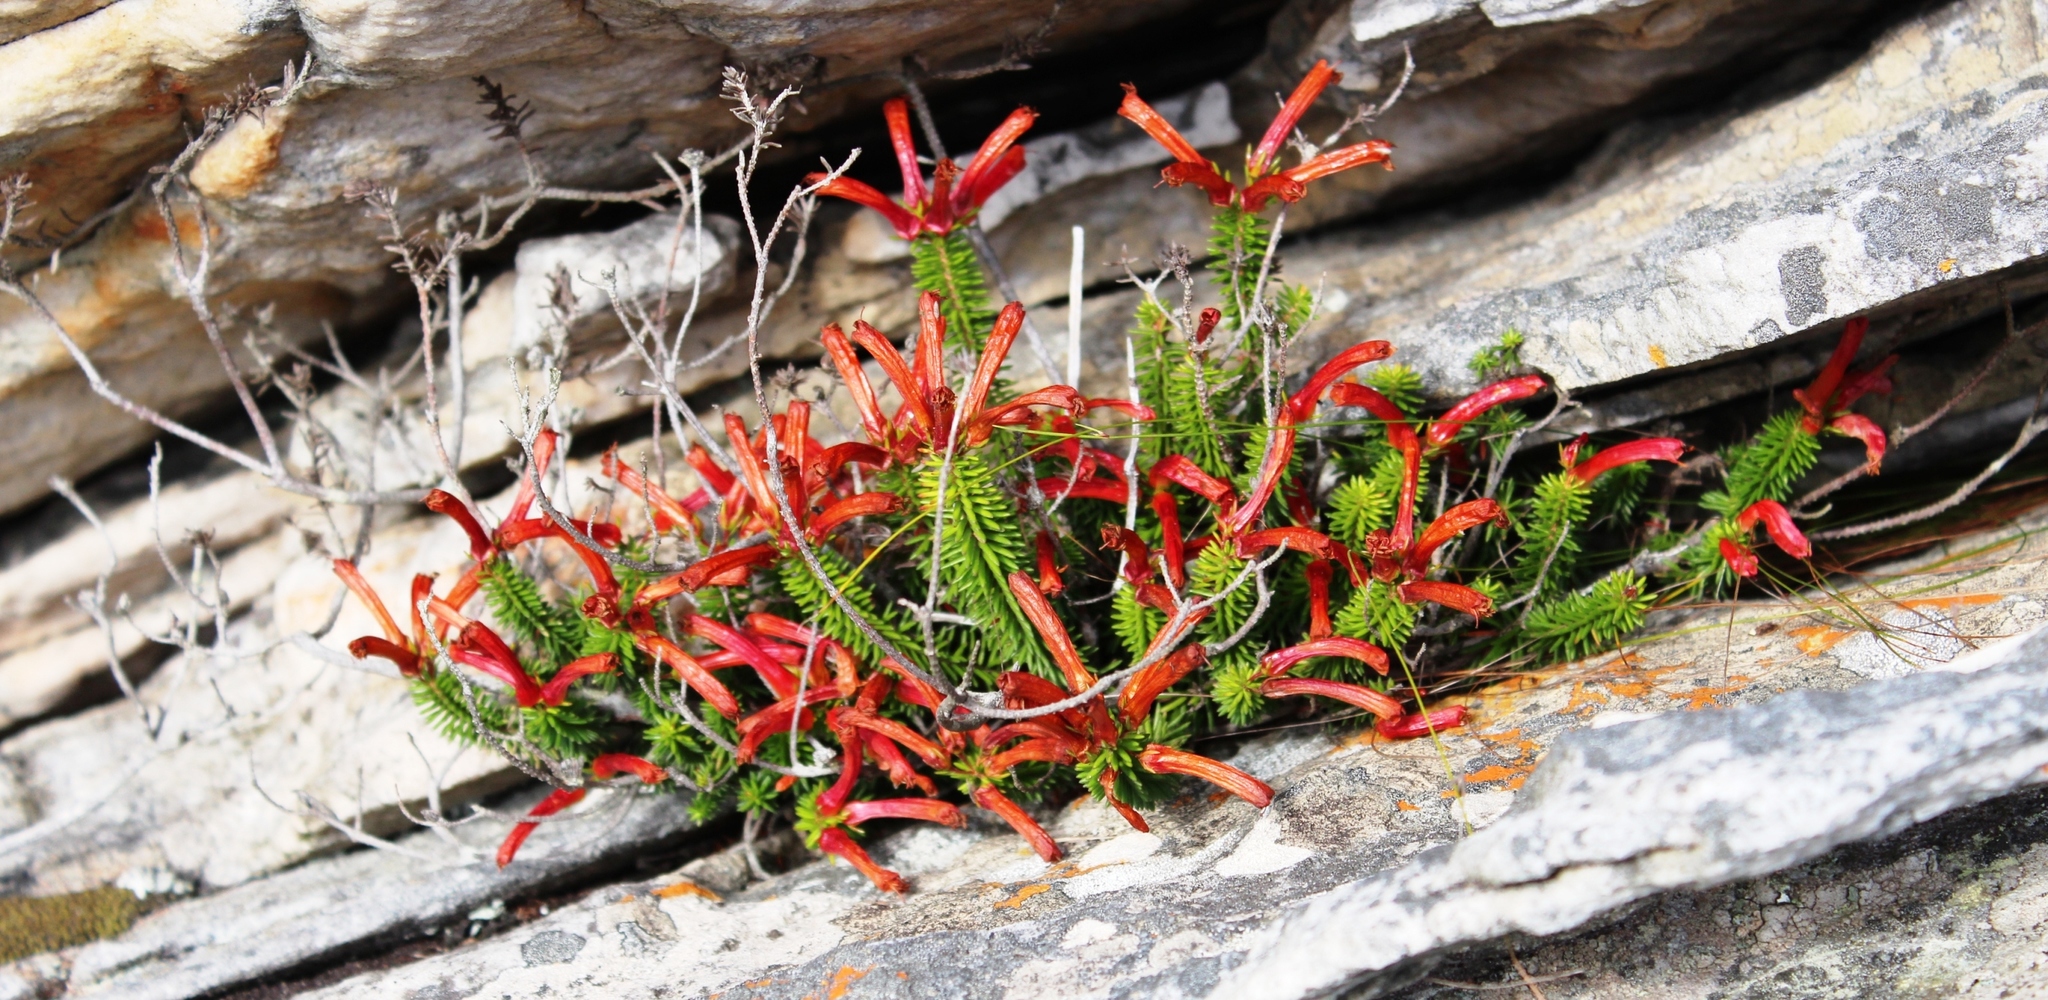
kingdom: Plantae
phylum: Tracheophyta
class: Magnoliopsida
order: Ericales
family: Ericaceae
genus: Erica
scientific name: Erica nevillei
